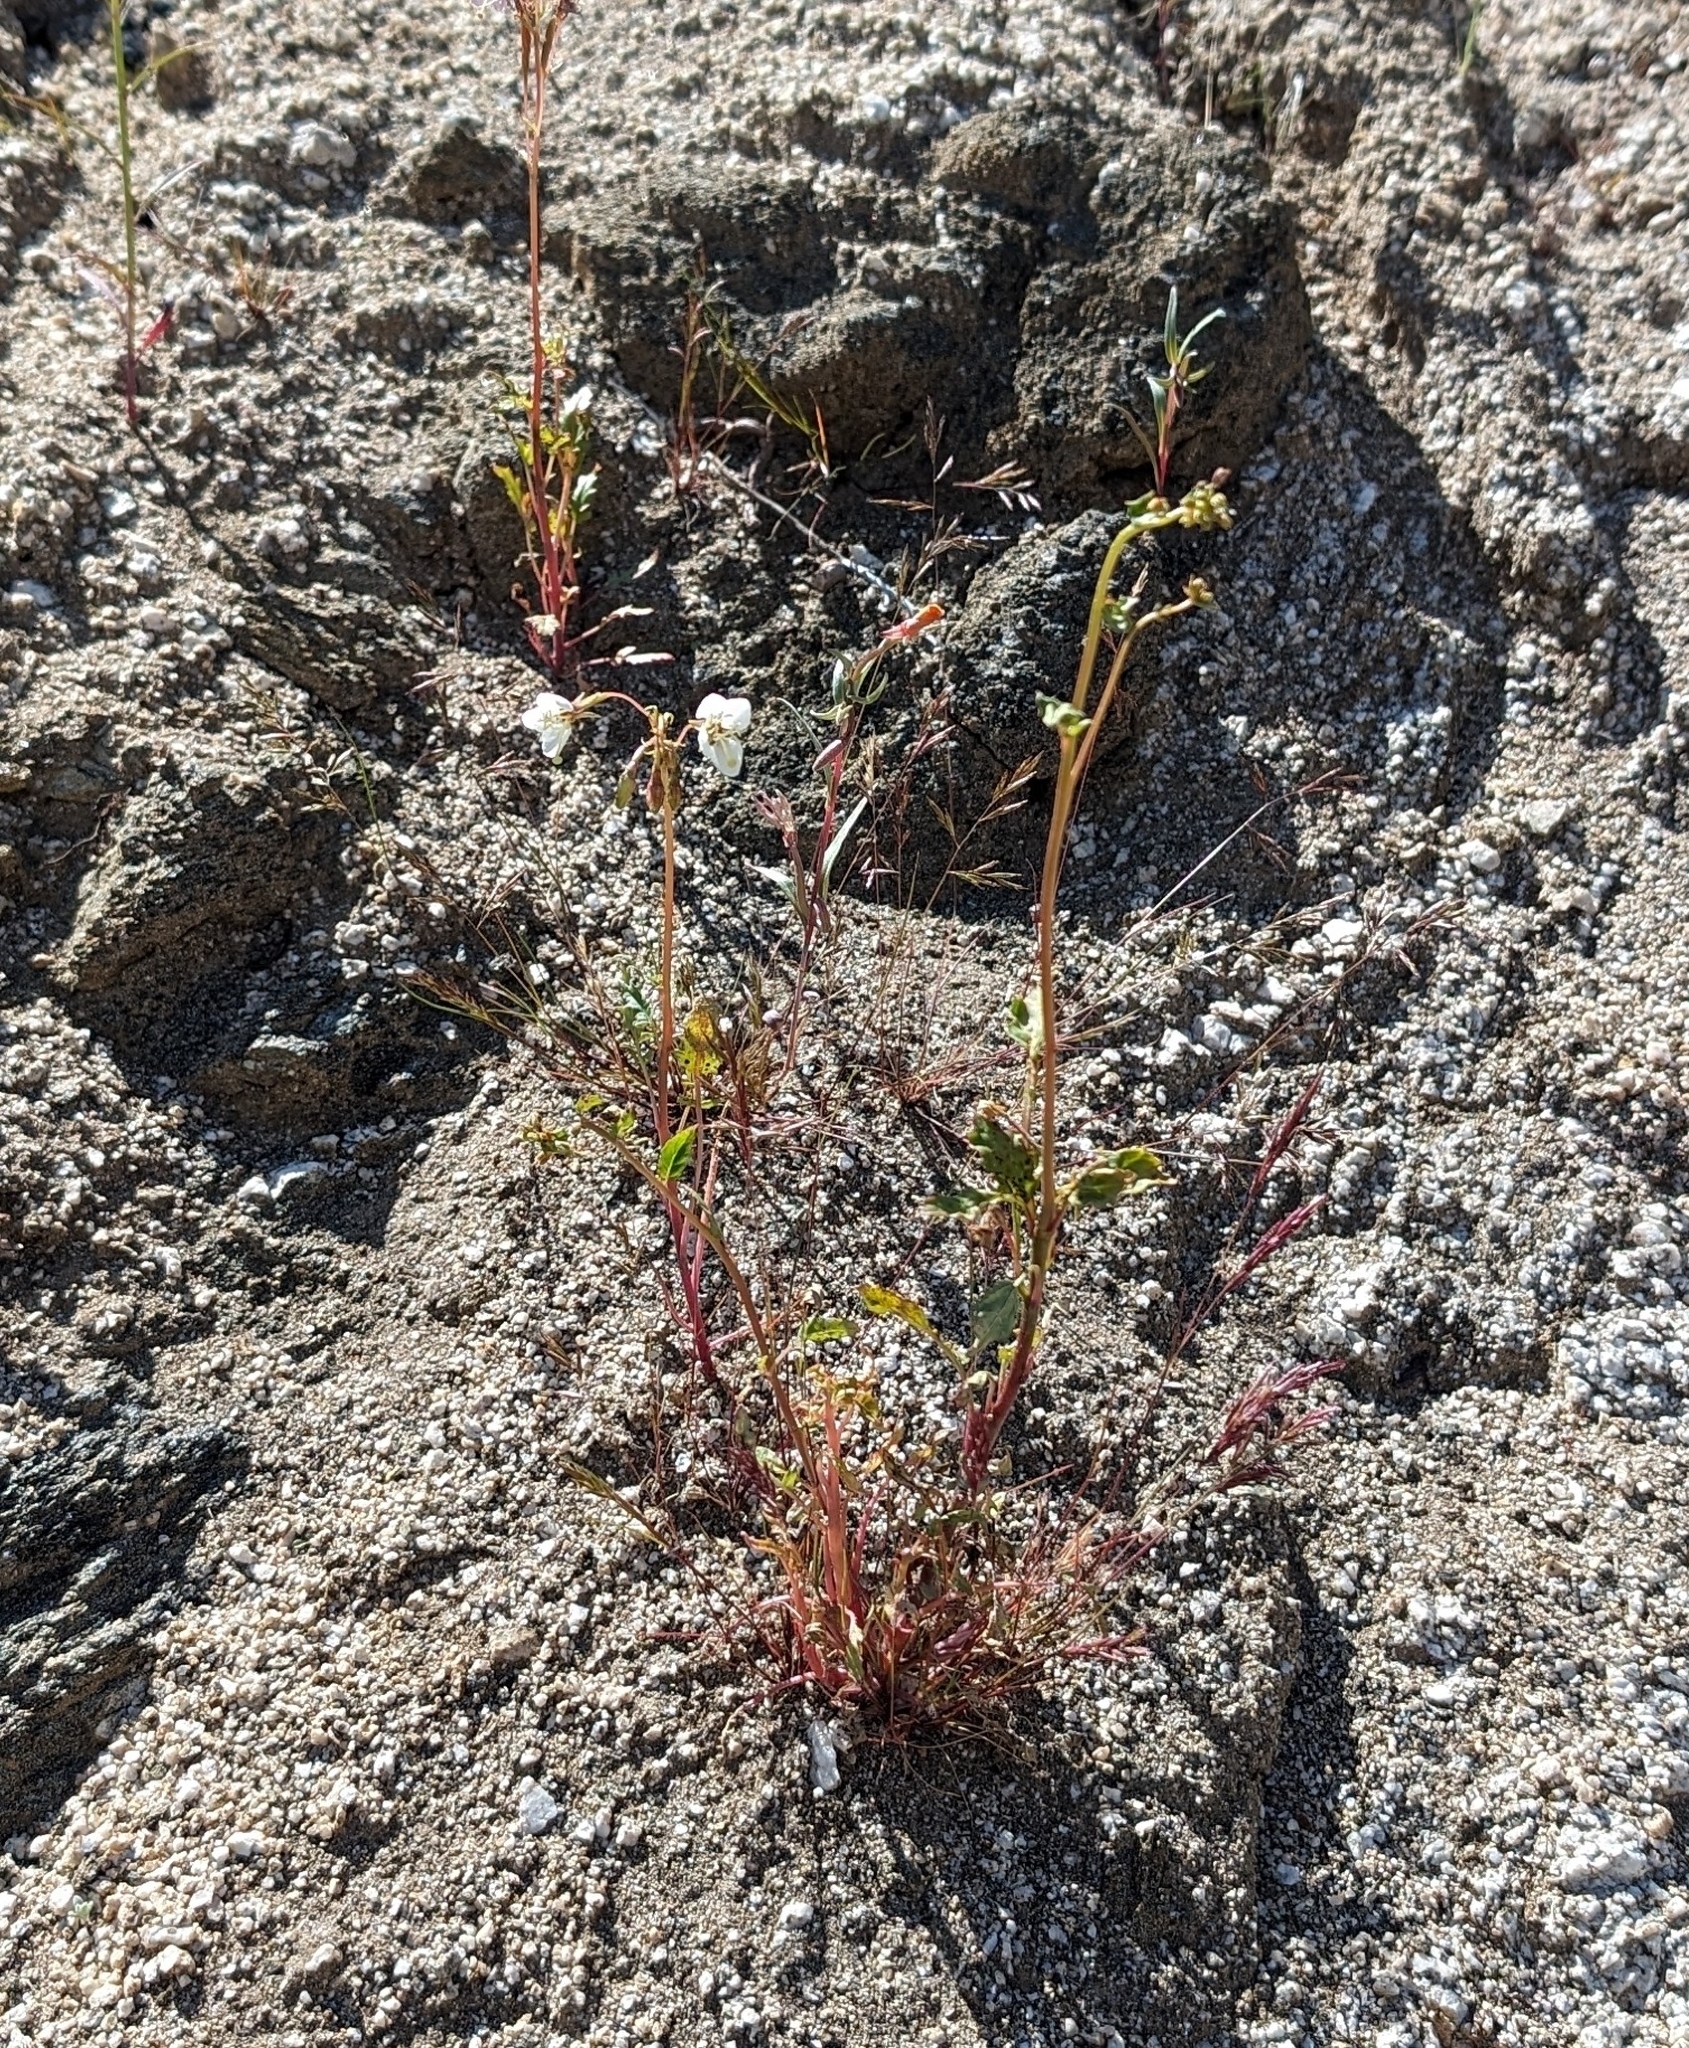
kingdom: Plantae
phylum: Tracheophyta
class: Magnoliopsida
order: Myrtales
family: Onagraceae
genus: Chylismia
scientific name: Chylismia claviformis
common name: Browneyes
